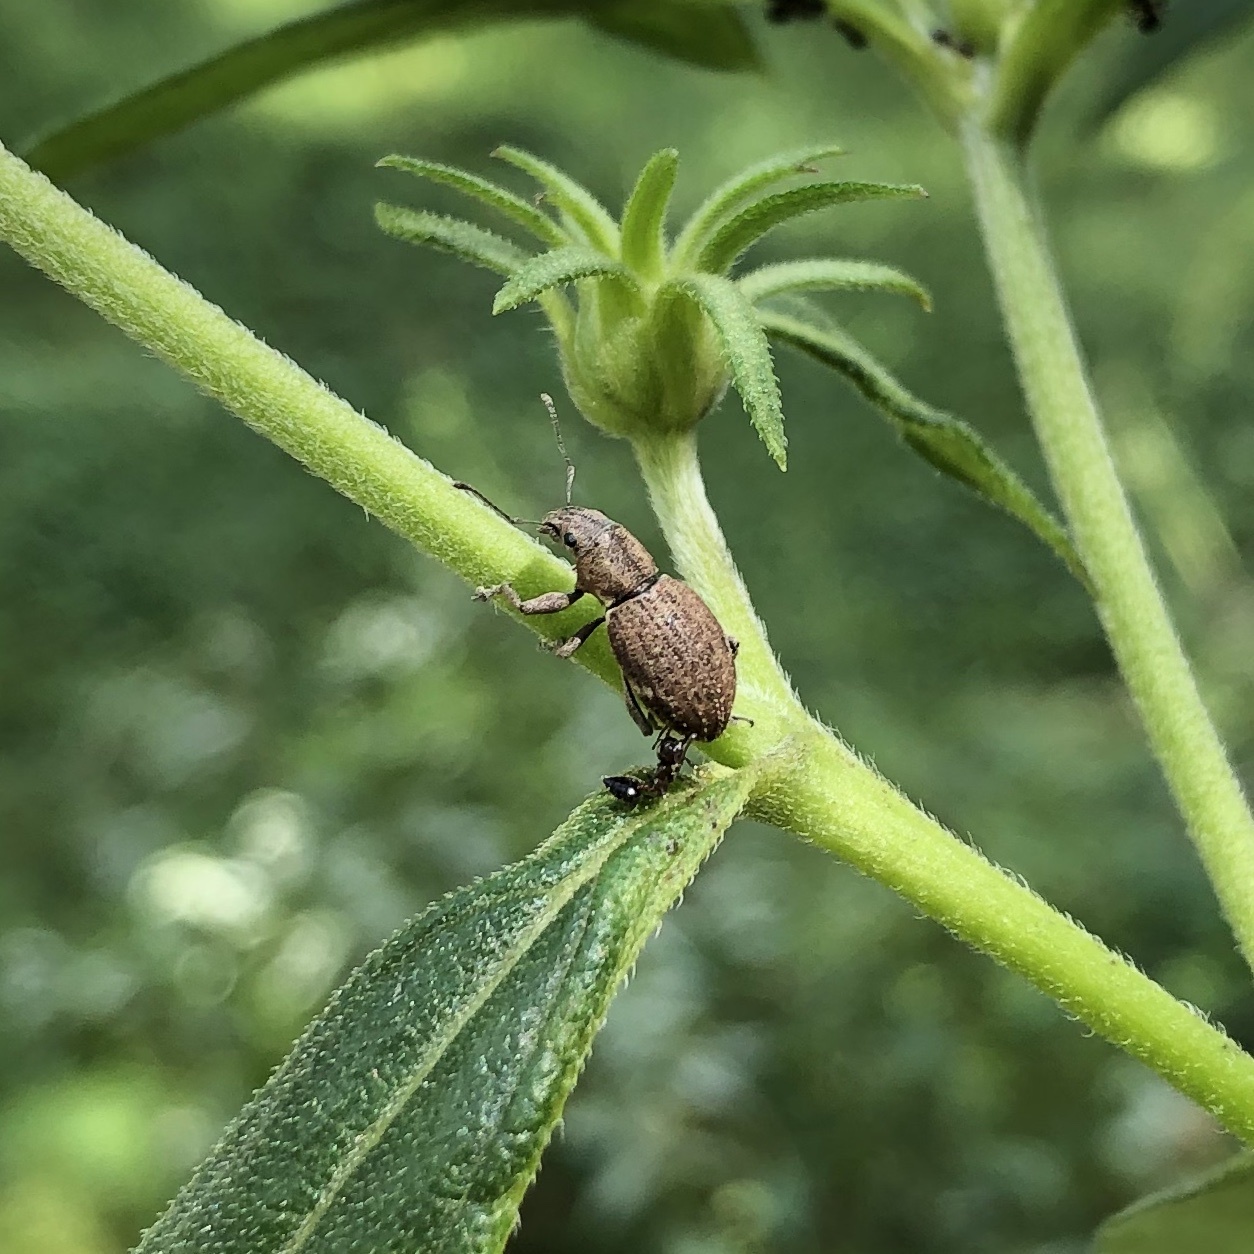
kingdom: Animalia
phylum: Arthropoda
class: Insecta
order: Coleoptera
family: Curculionidae
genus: Naupactus
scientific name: Naupactus cervinus
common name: Fuller rose beetle
